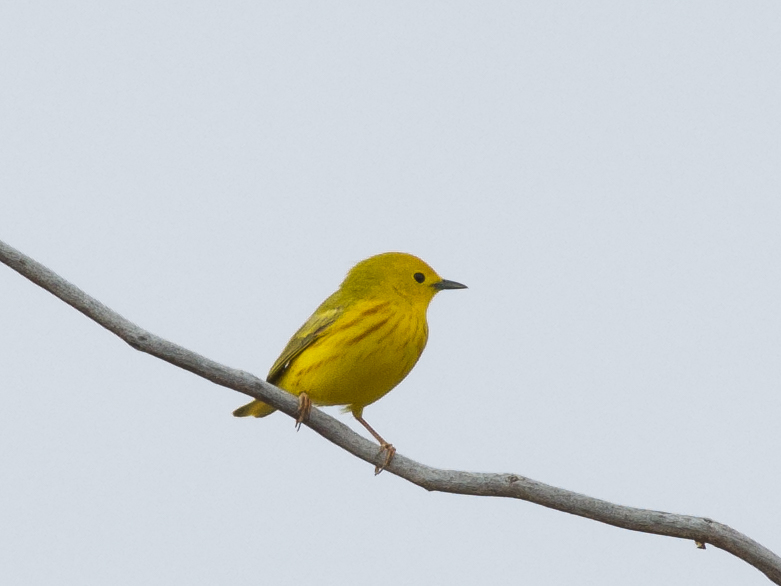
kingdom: Animalia
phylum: Chordata
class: Aves
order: Passeriformes
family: Parulidae
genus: Setophaga
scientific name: Setophaga petechia
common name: Yellow warbler
